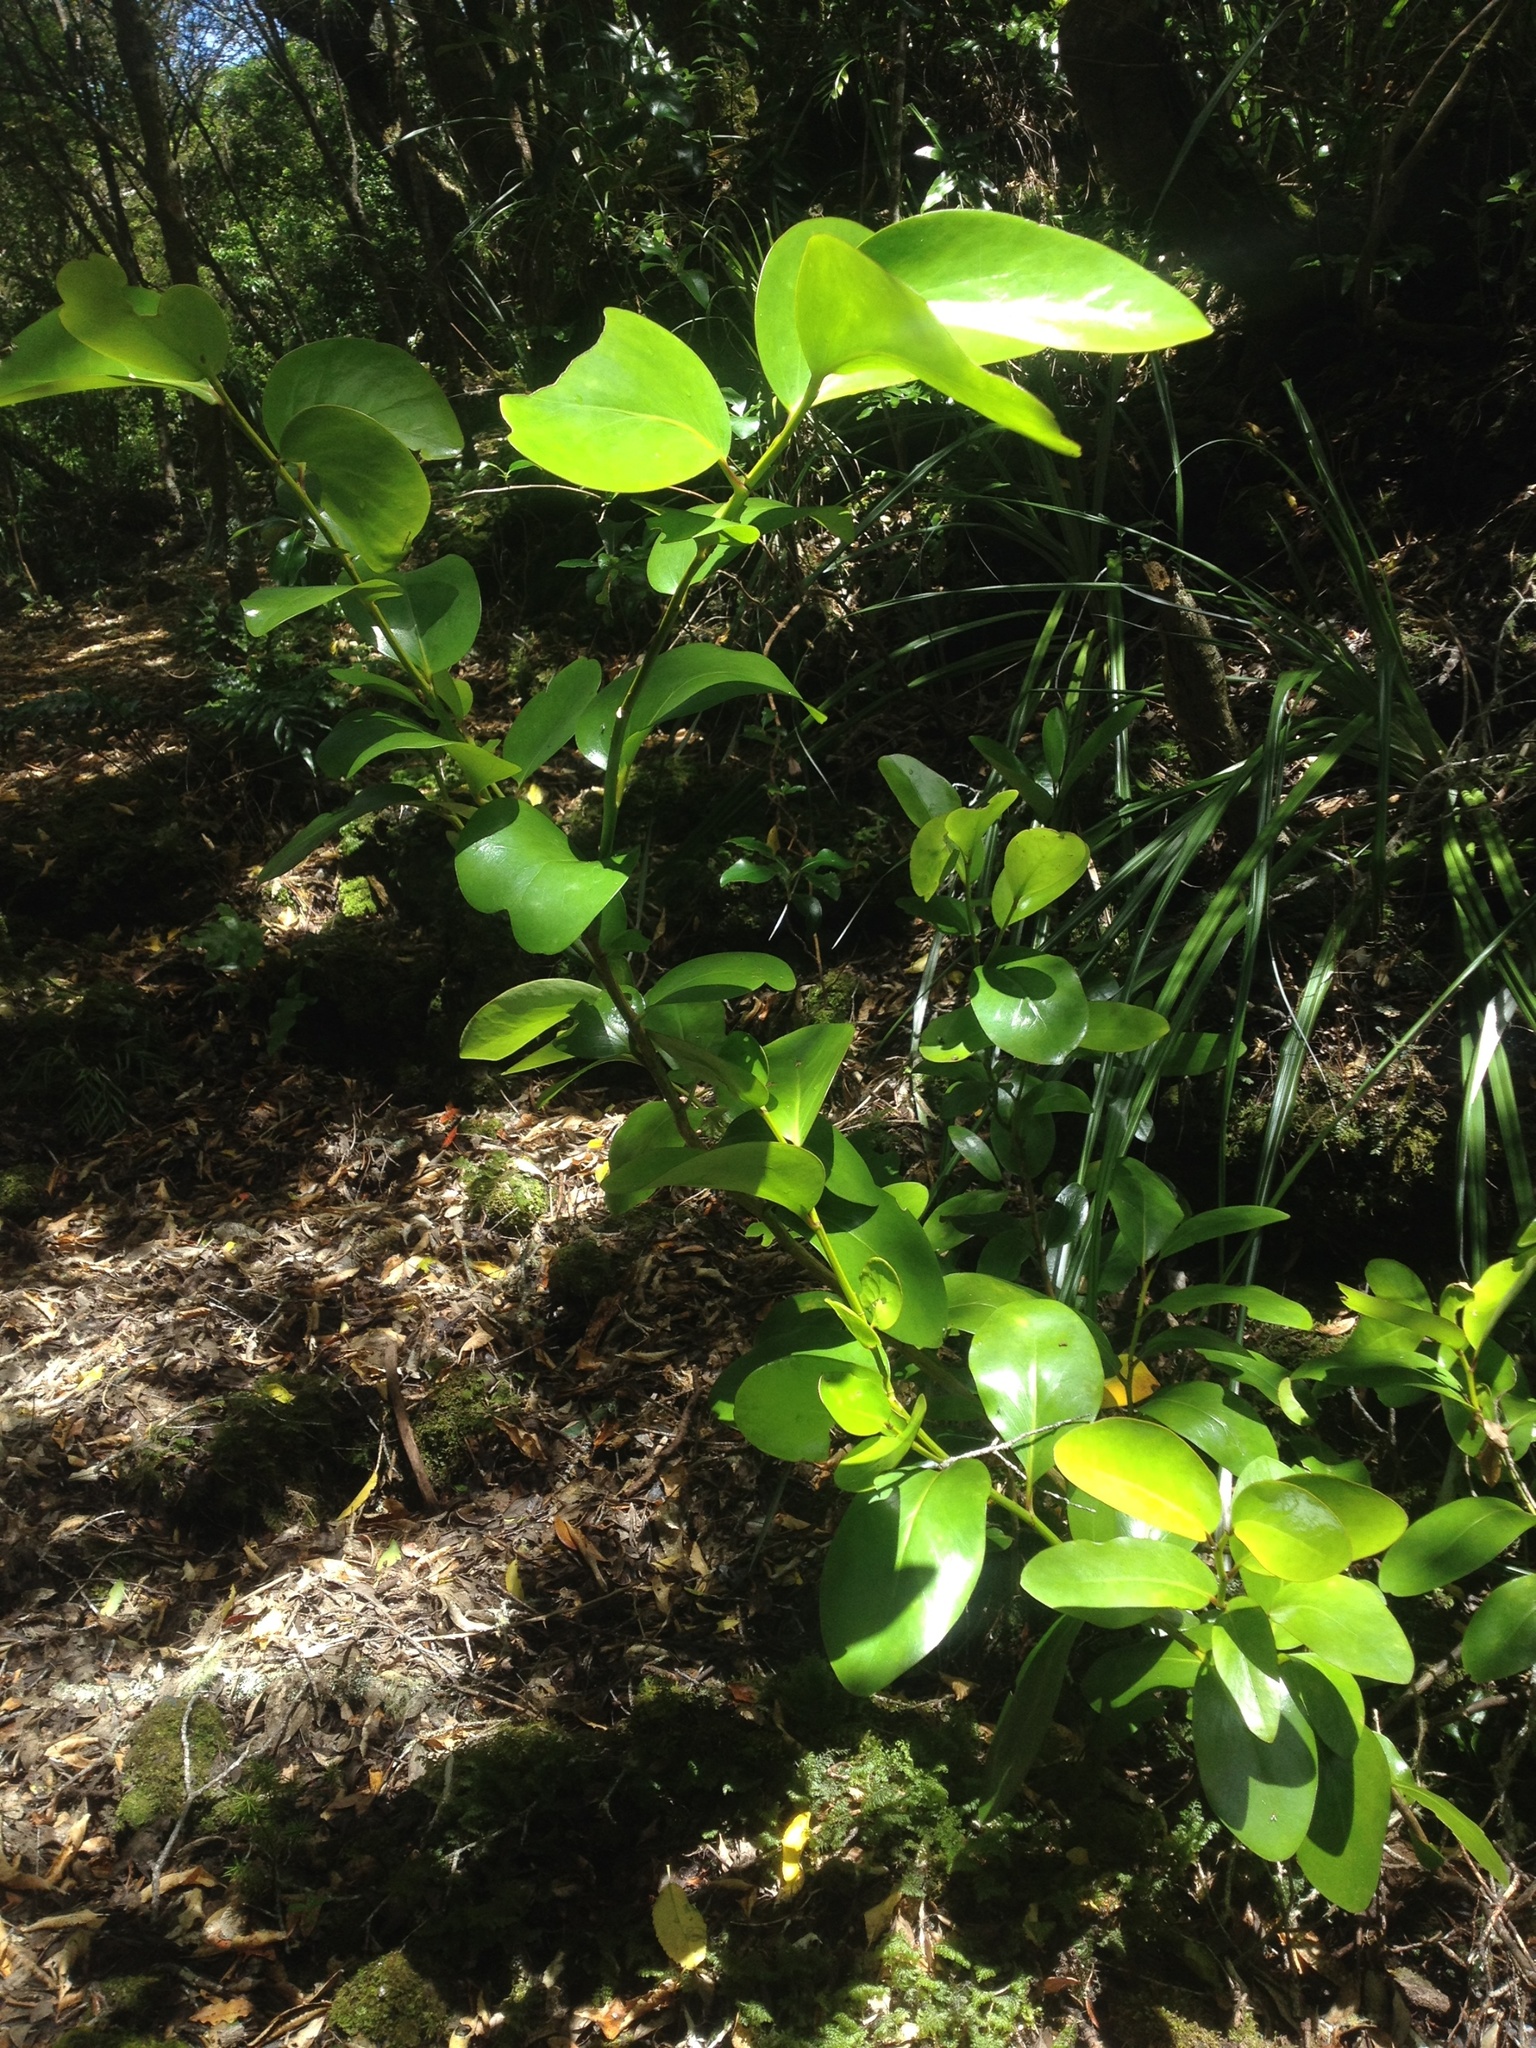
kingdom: Plantae
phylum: Tracheophyta
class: Magnoliopsida
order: Apiales
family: Griseliniaceae
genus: Griselinia
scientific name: Griselinia lucida
